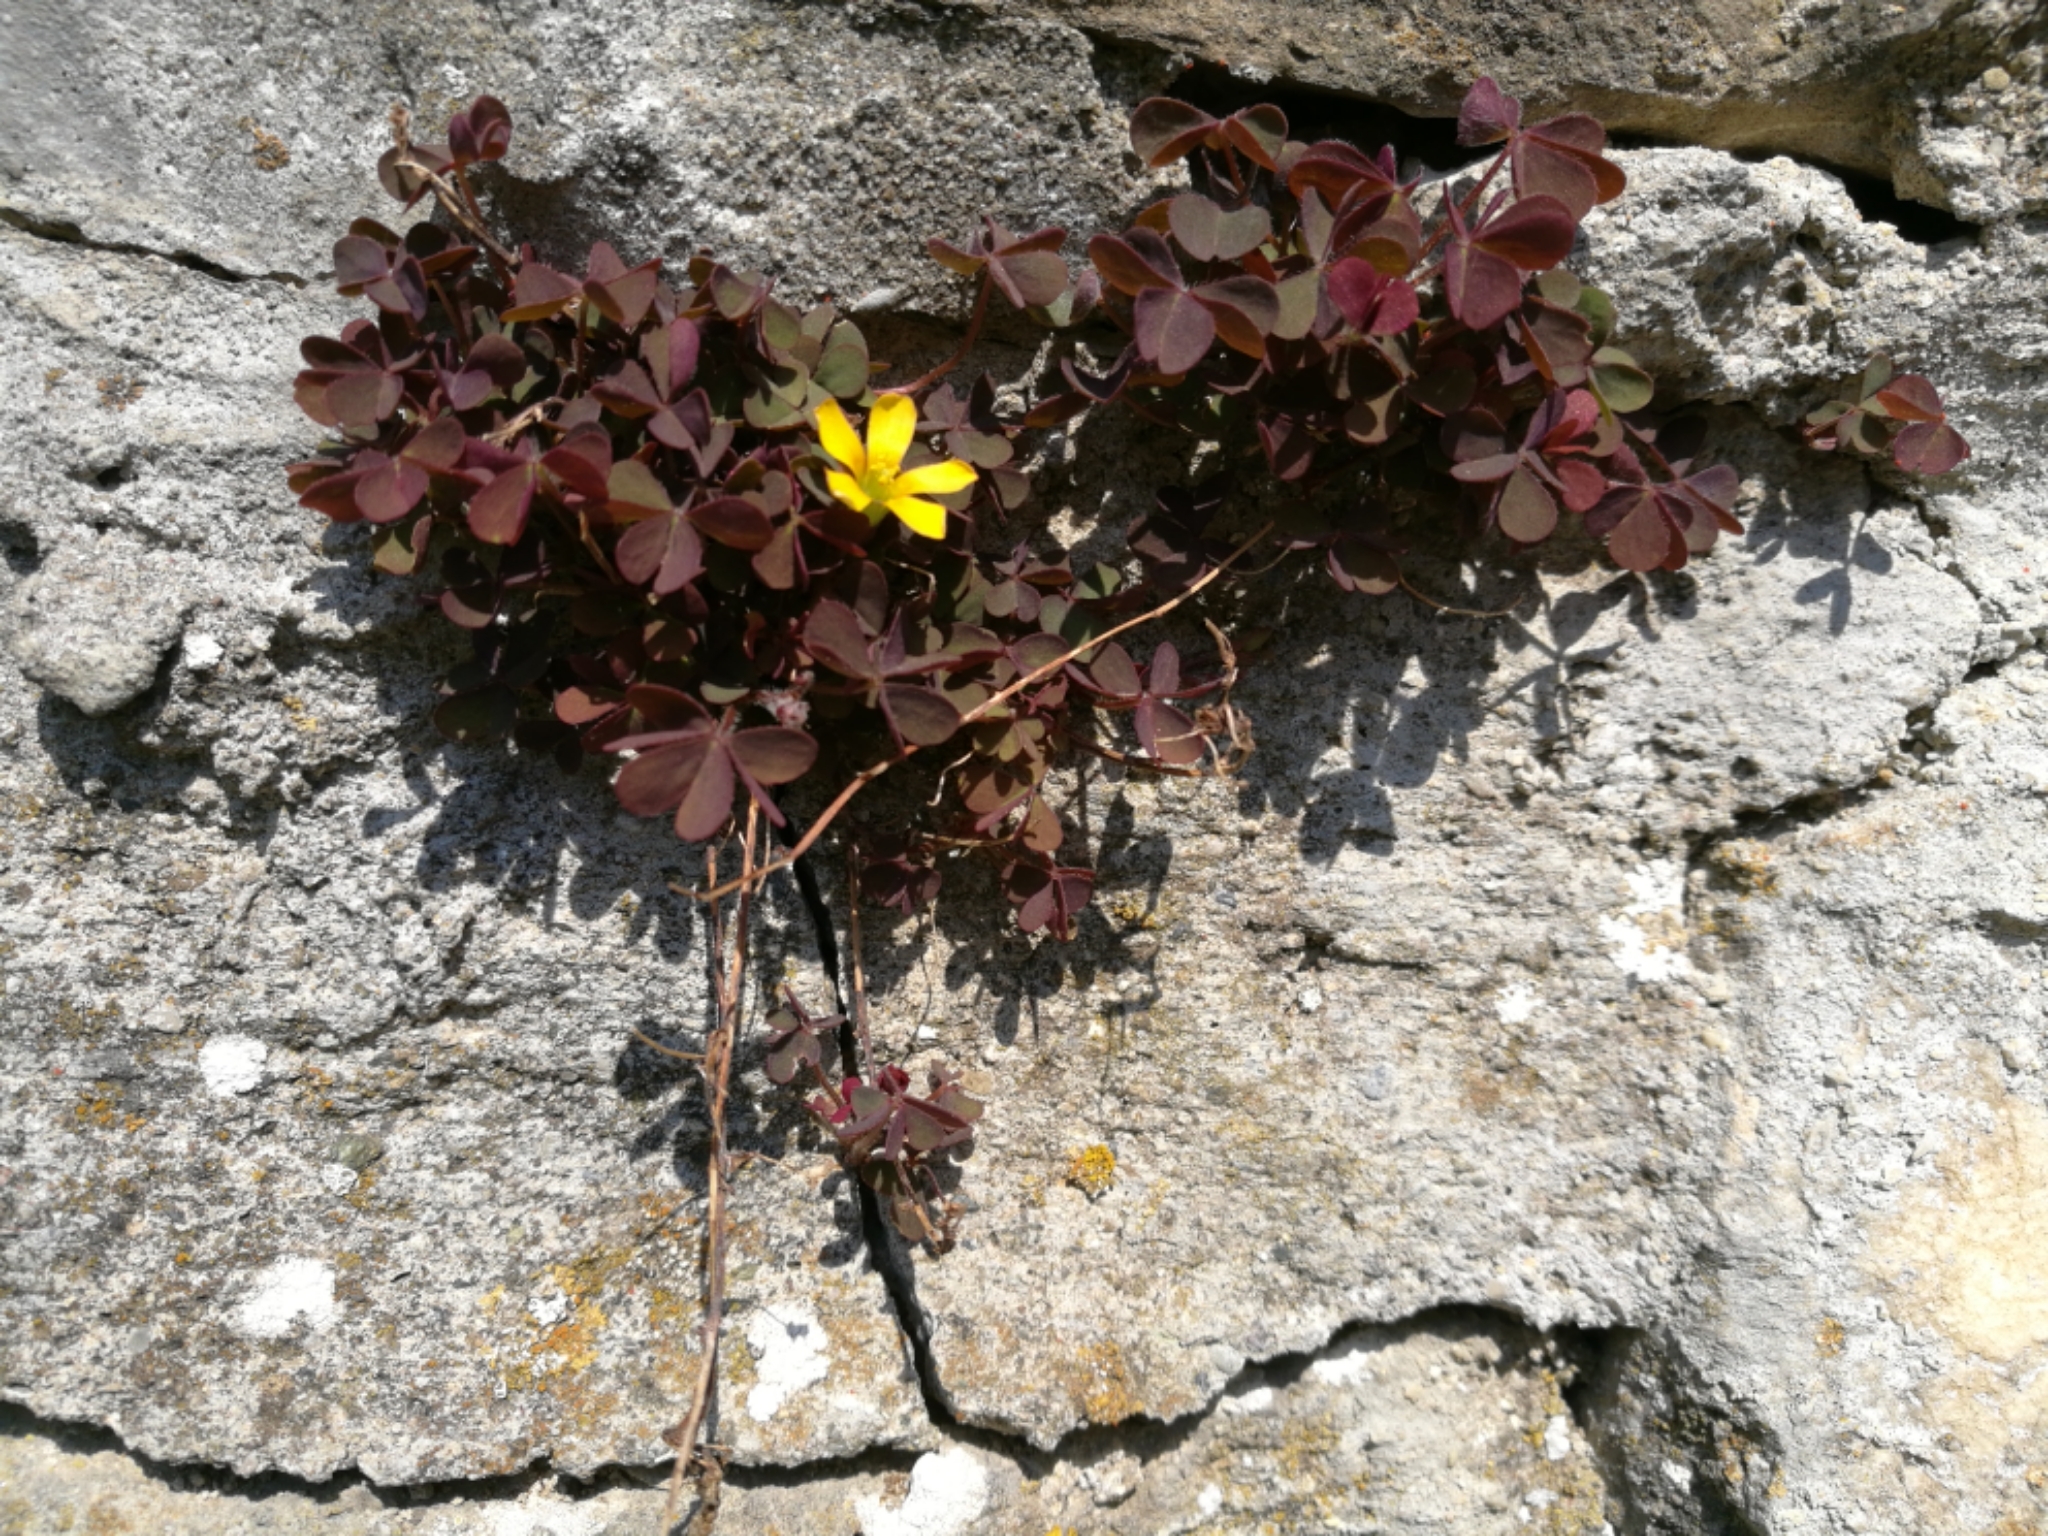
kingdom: Plantae
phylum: Tracheophyta
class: Magnoliopsida
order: Oxalidales
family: Oxalidaceae
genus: Oxalis
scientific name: Oxalis corniculata
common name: Procumbent yellow-sorrel
